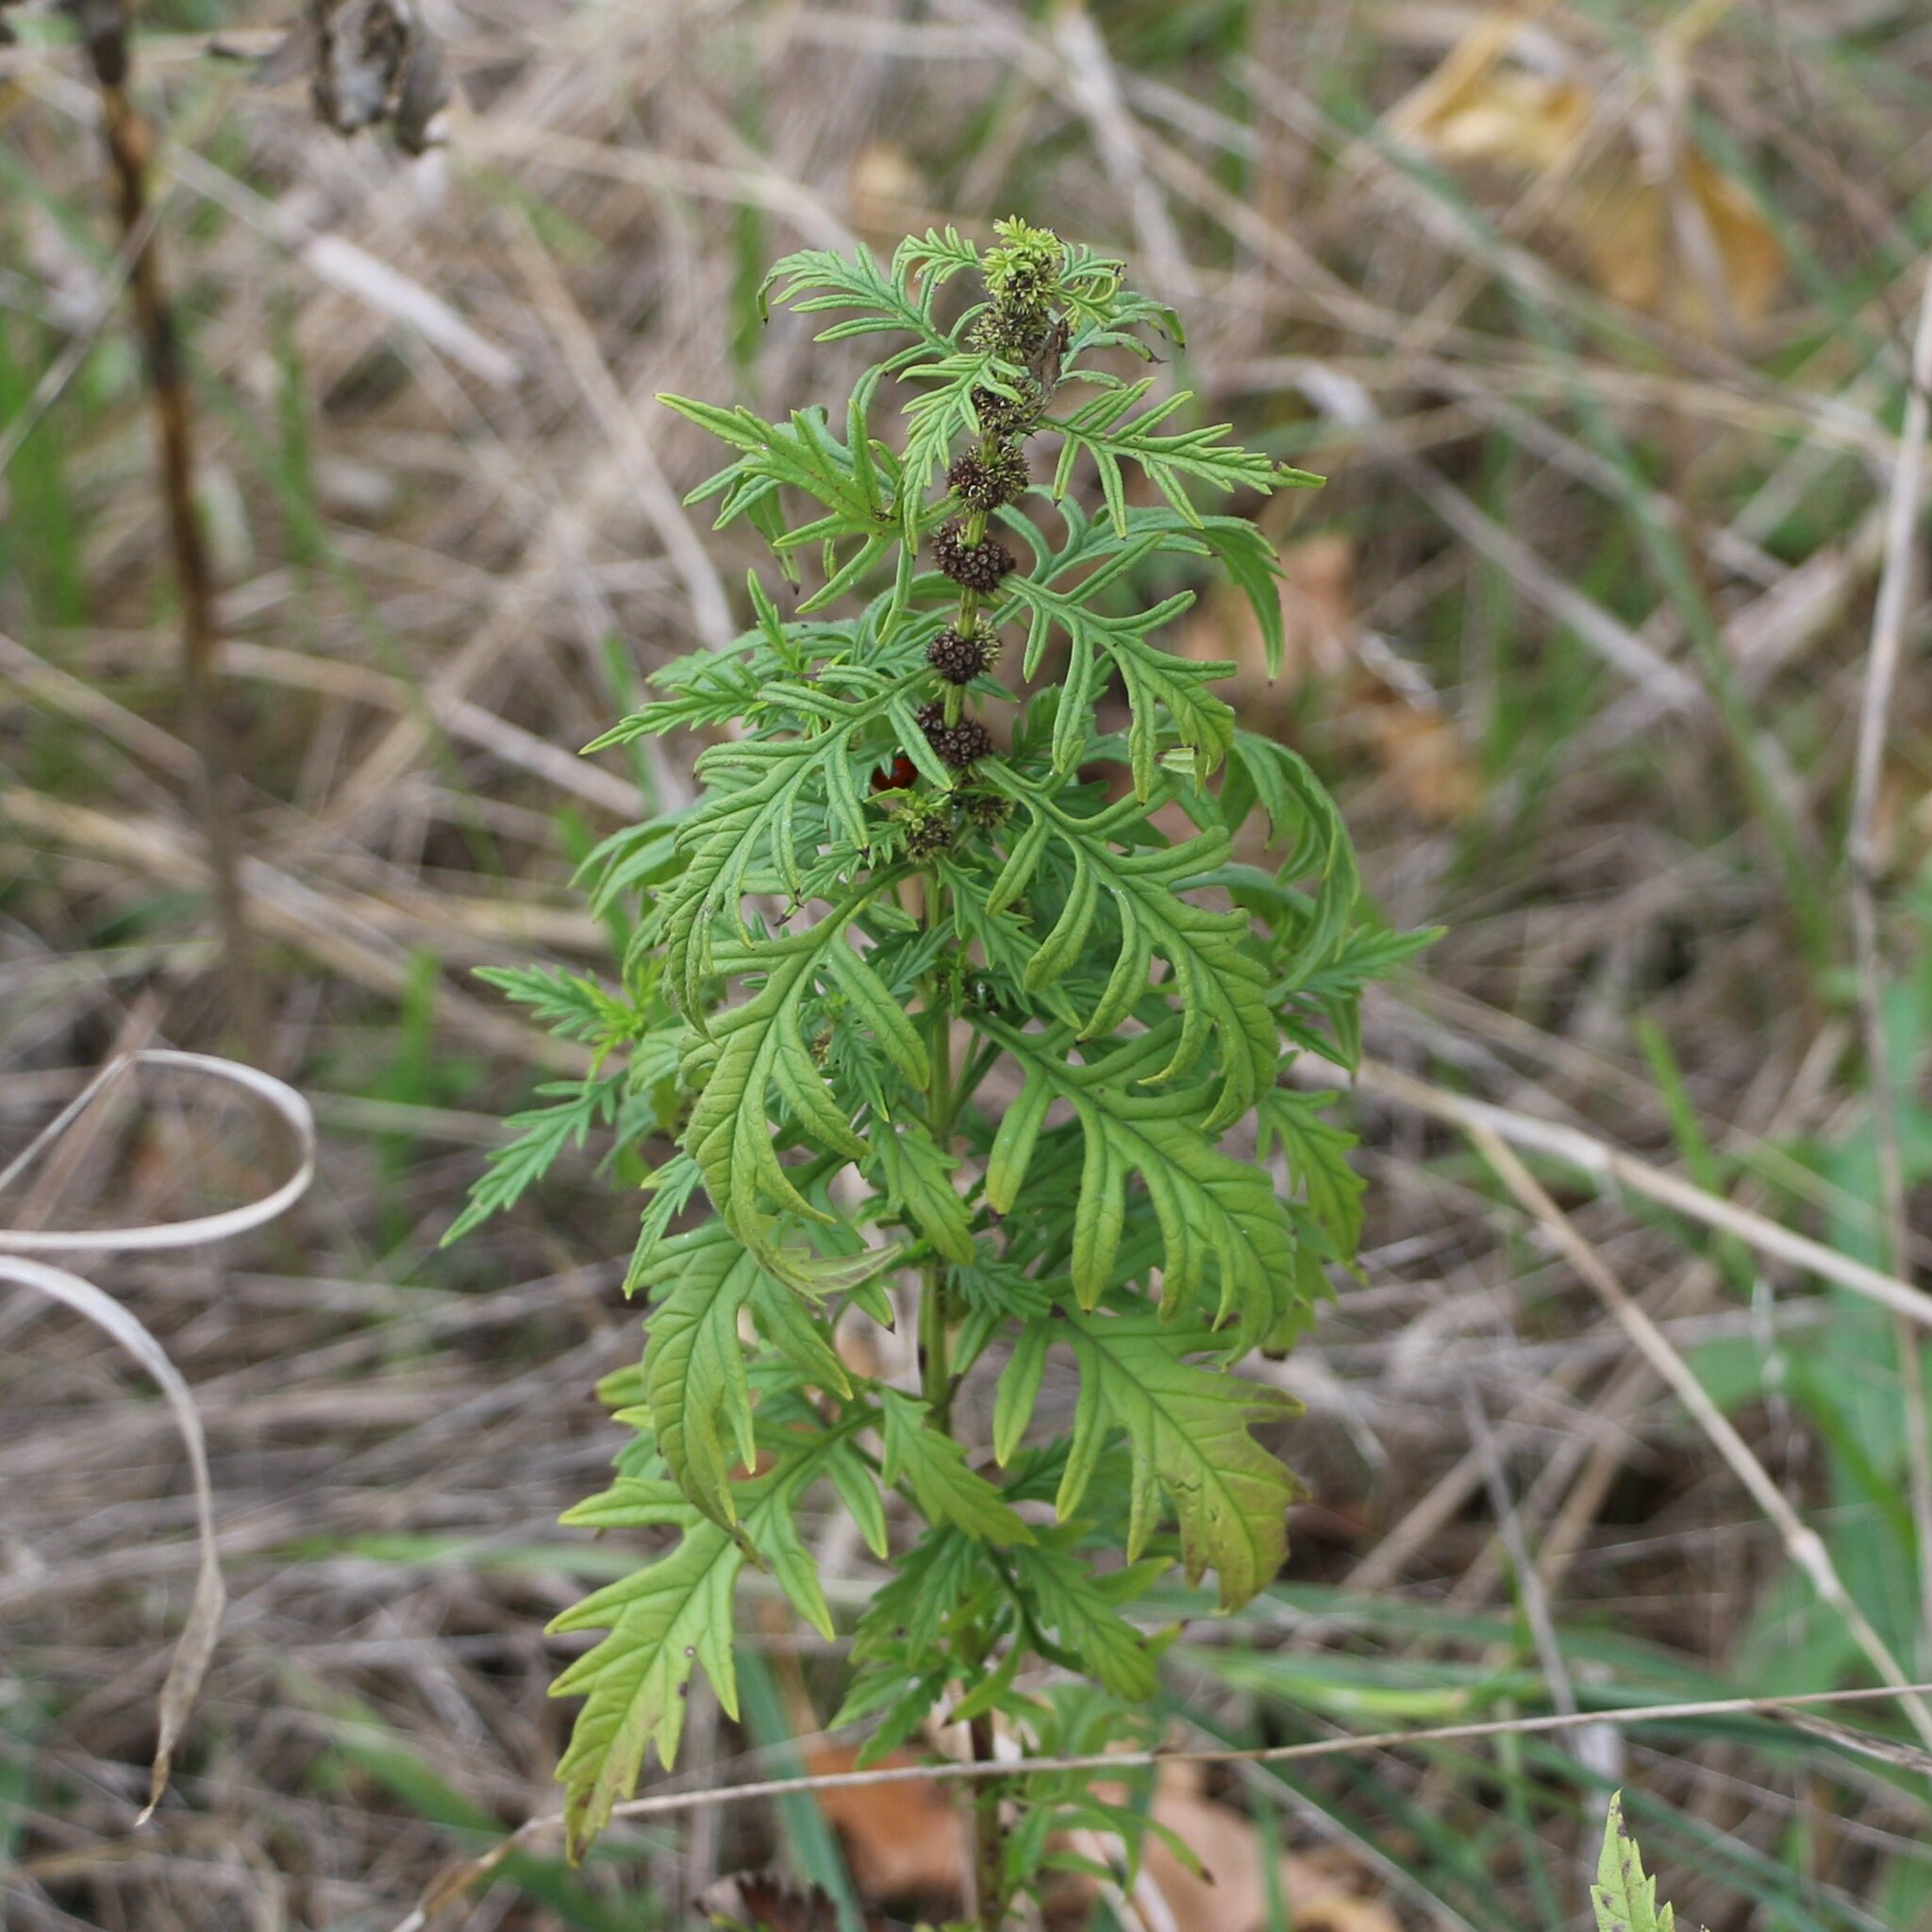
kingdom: Plantae
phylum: Tracheophyta
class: Magnoliopsida
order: Lamiales
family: Lamiaceae
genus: Lycopus
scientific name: Lycopus exaltatus
